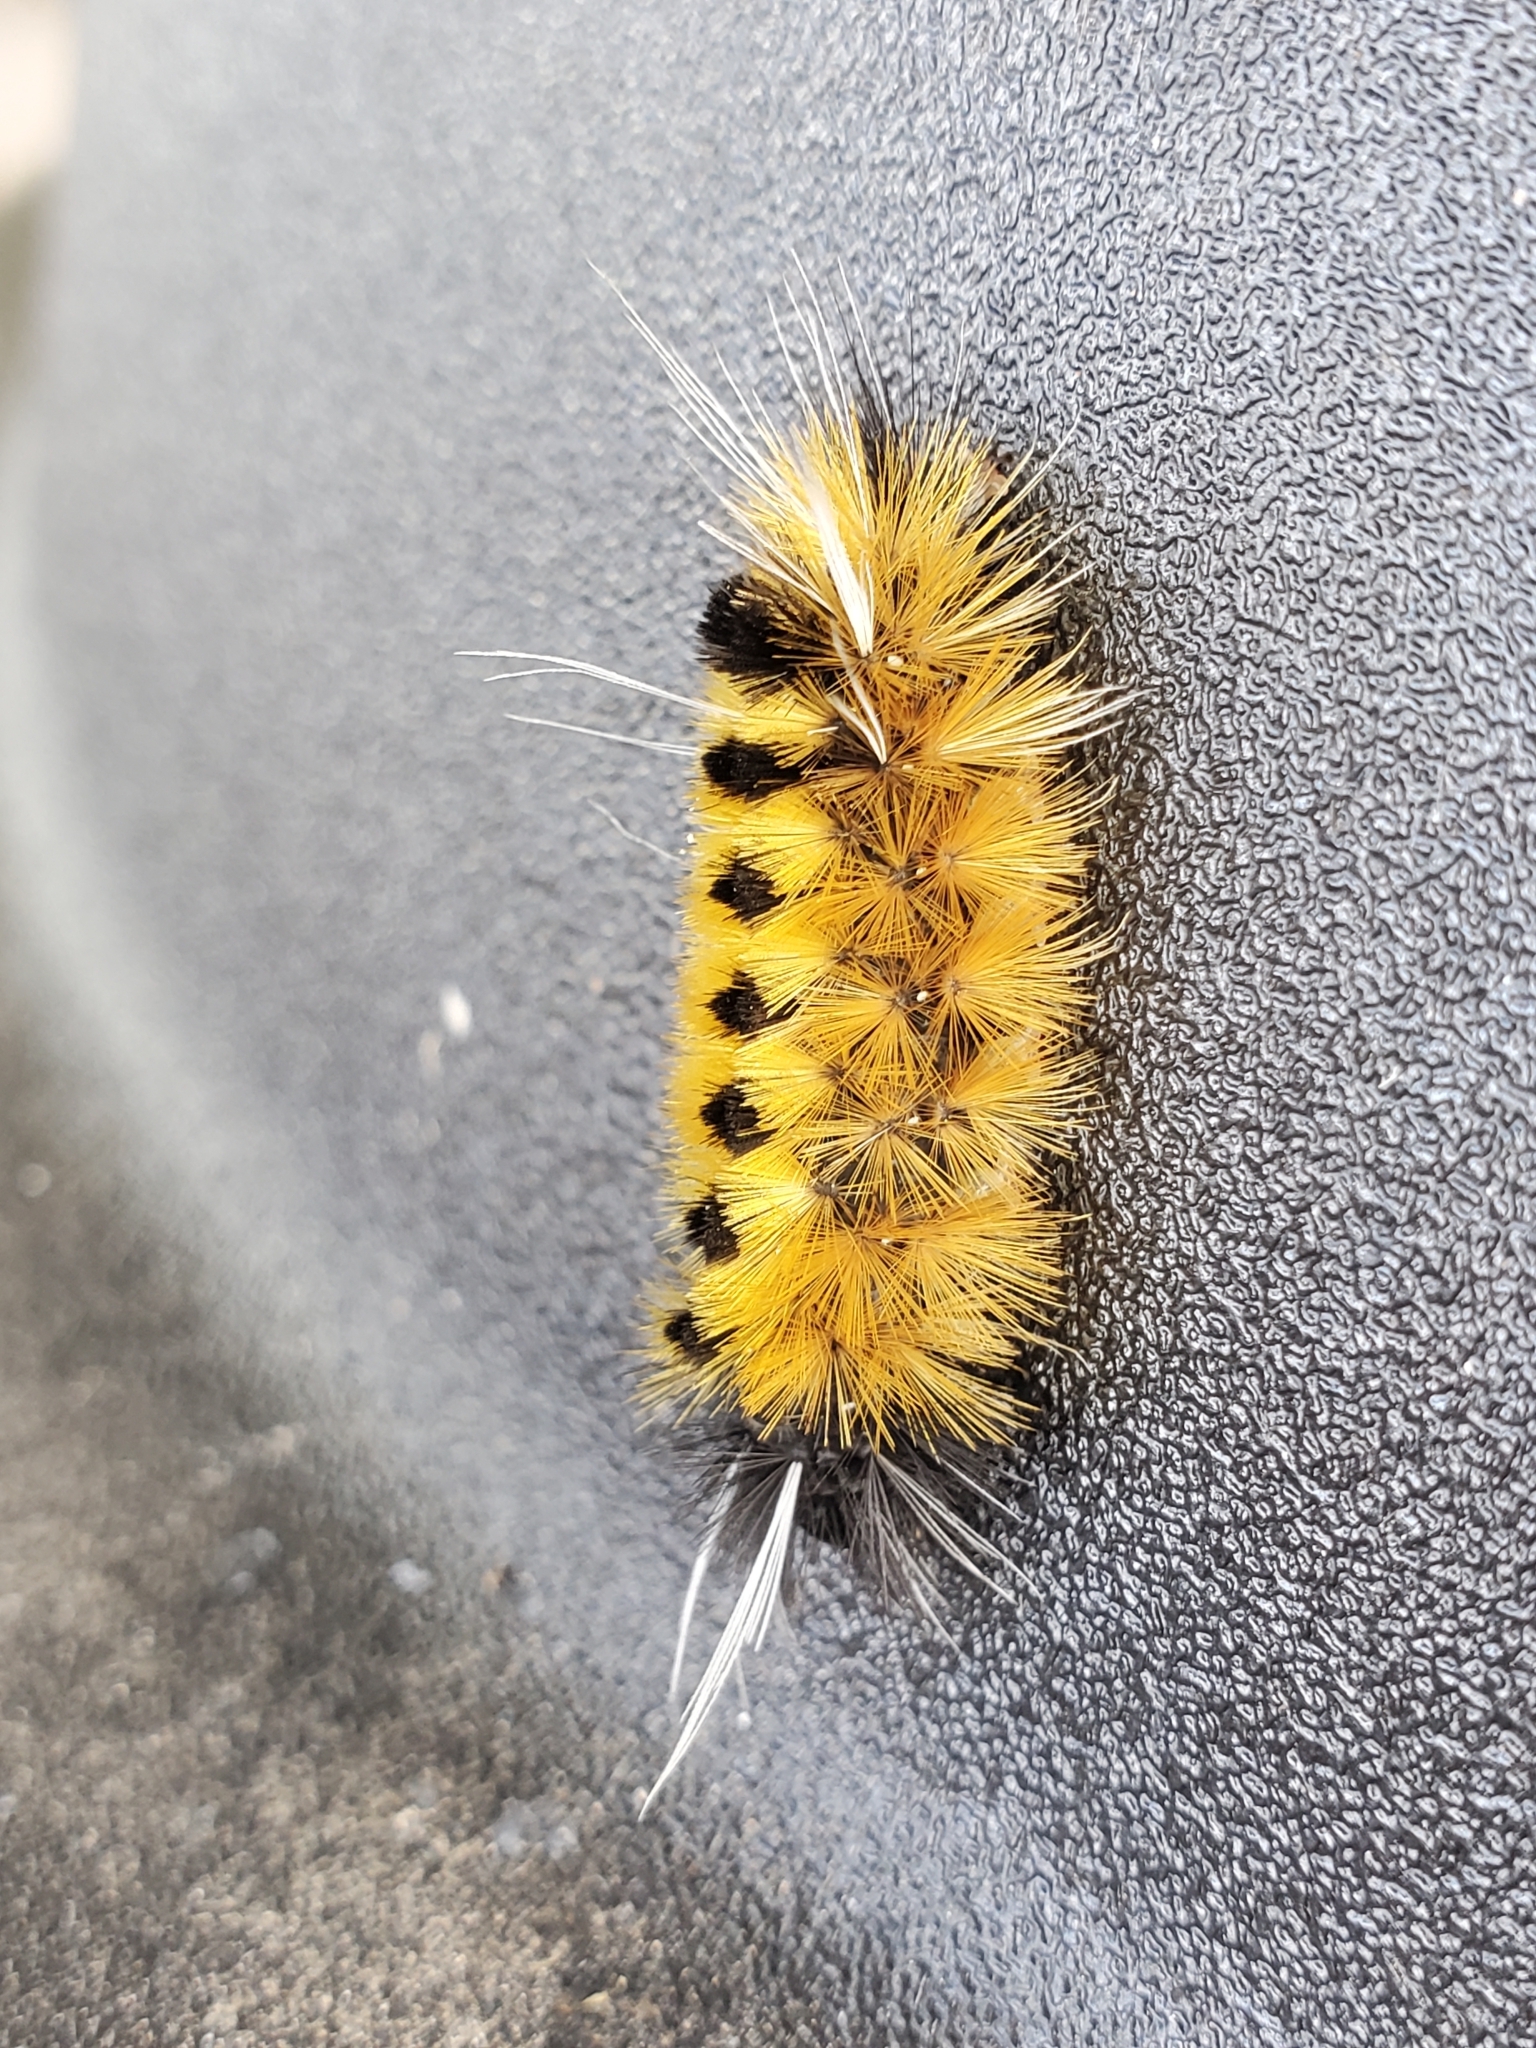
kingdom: Animalia
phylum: Arthropoda
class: Insecta
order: Lepidoptera
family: Erebidae
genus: Lophocampa
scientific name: Lophocampa maculata
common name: Spotted tussock moth
